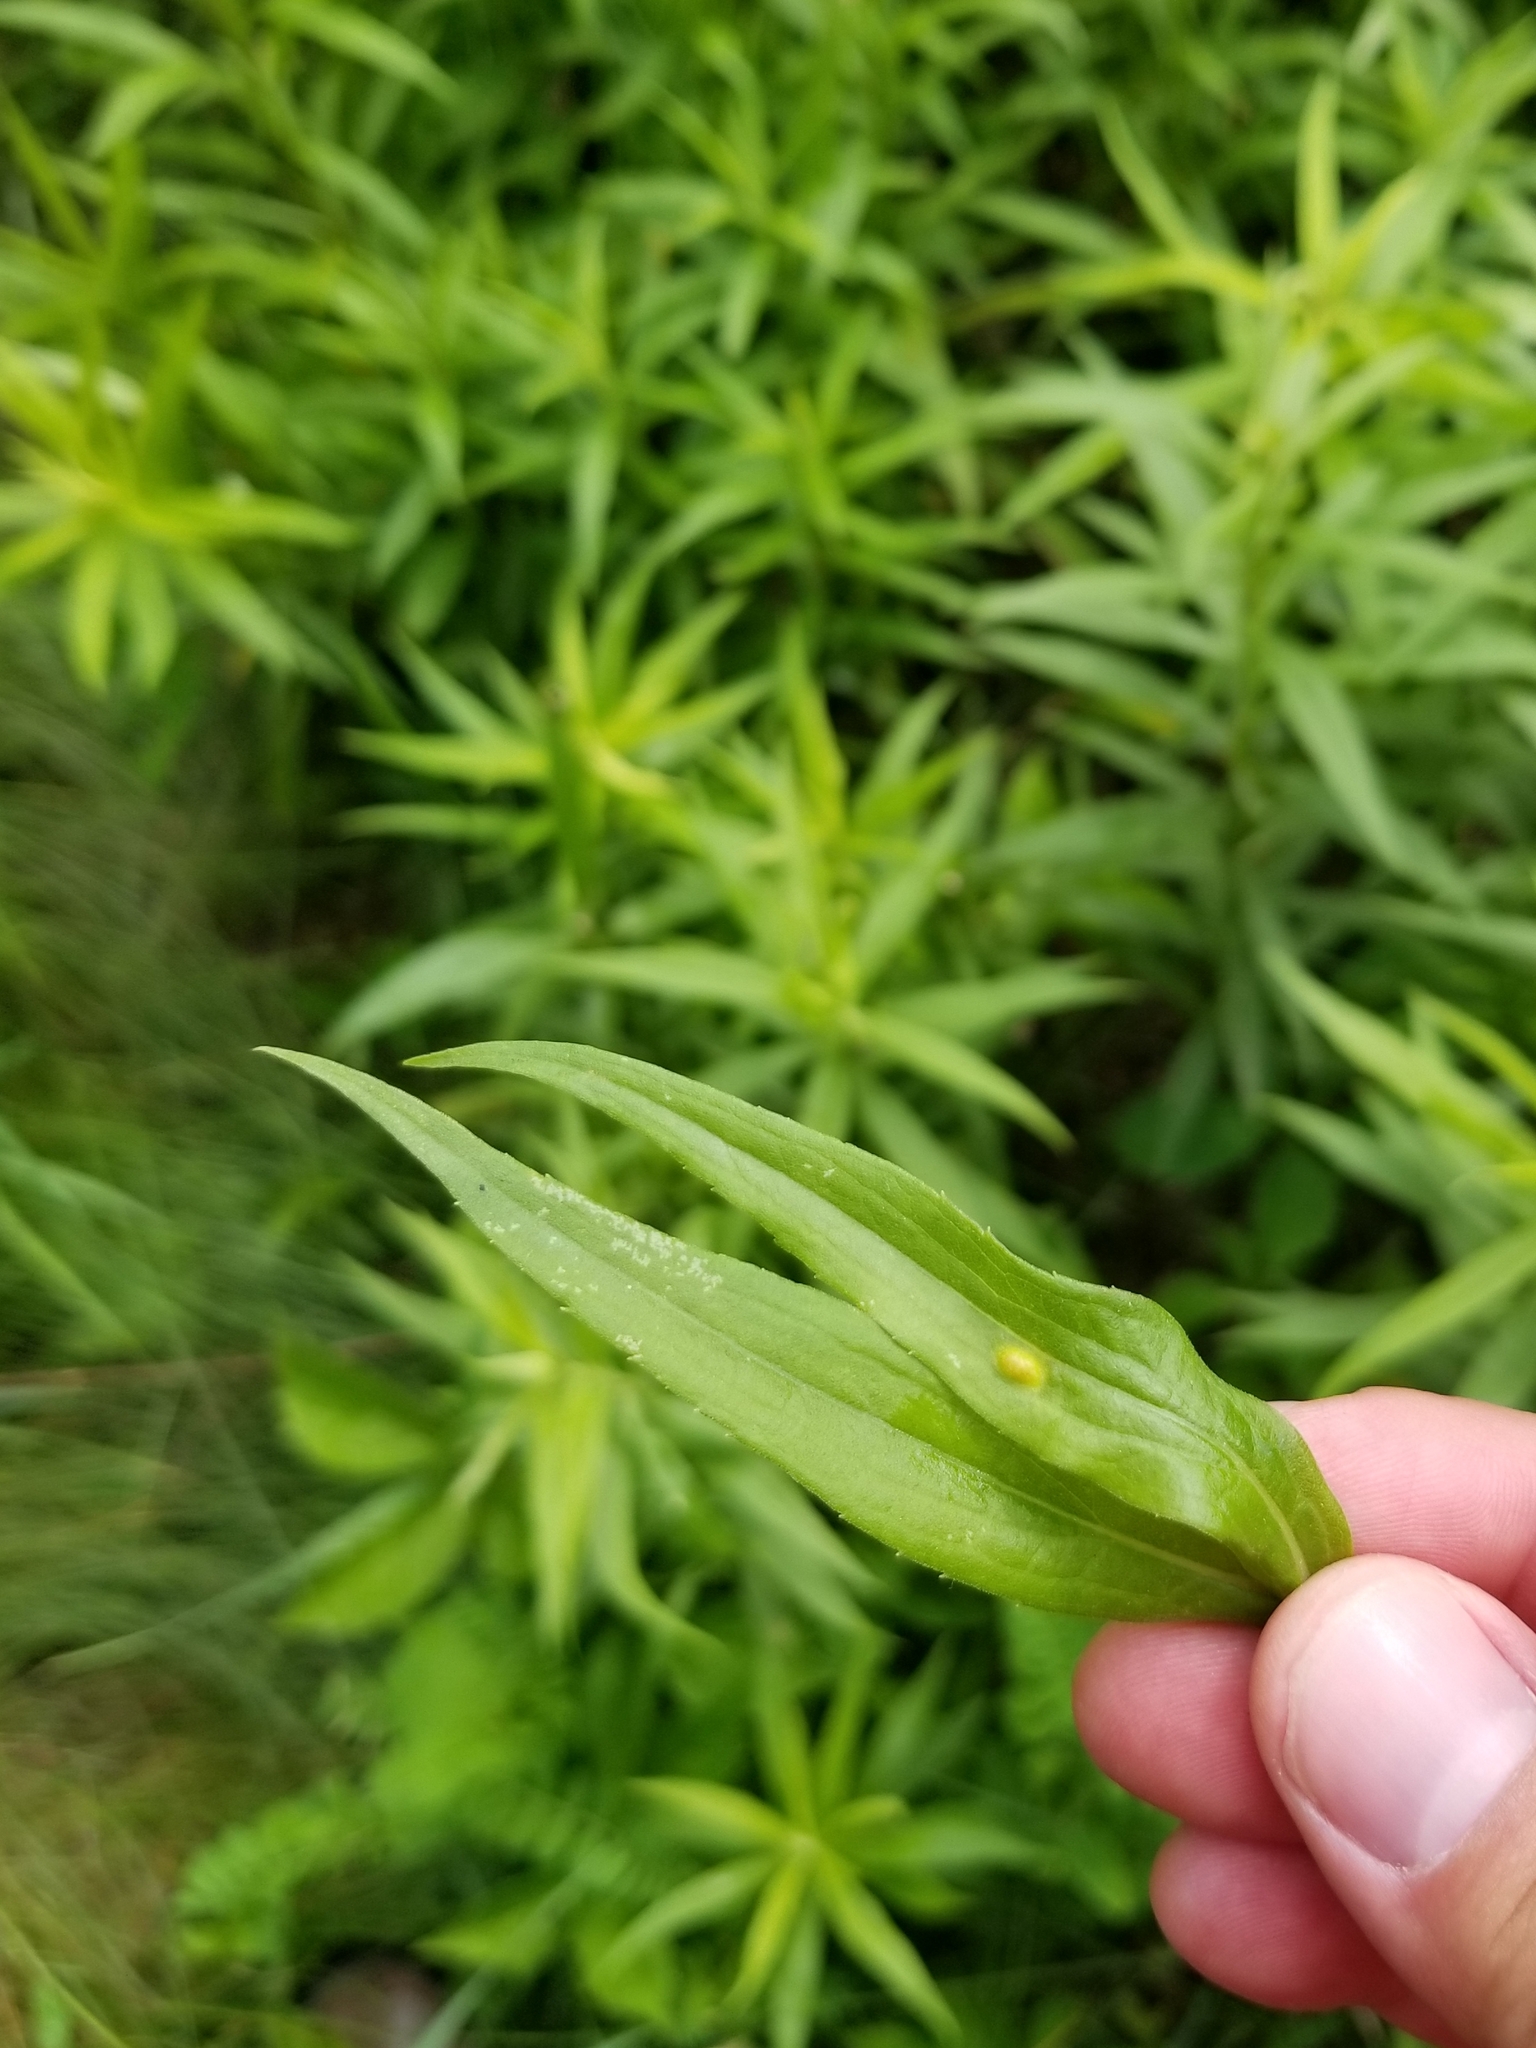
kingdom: Animalia
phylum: Arthropoda
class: Insecta
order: Diptera
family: Cecidomyiidae
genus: Asphondylia
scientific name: Asphondylia solidaginis
